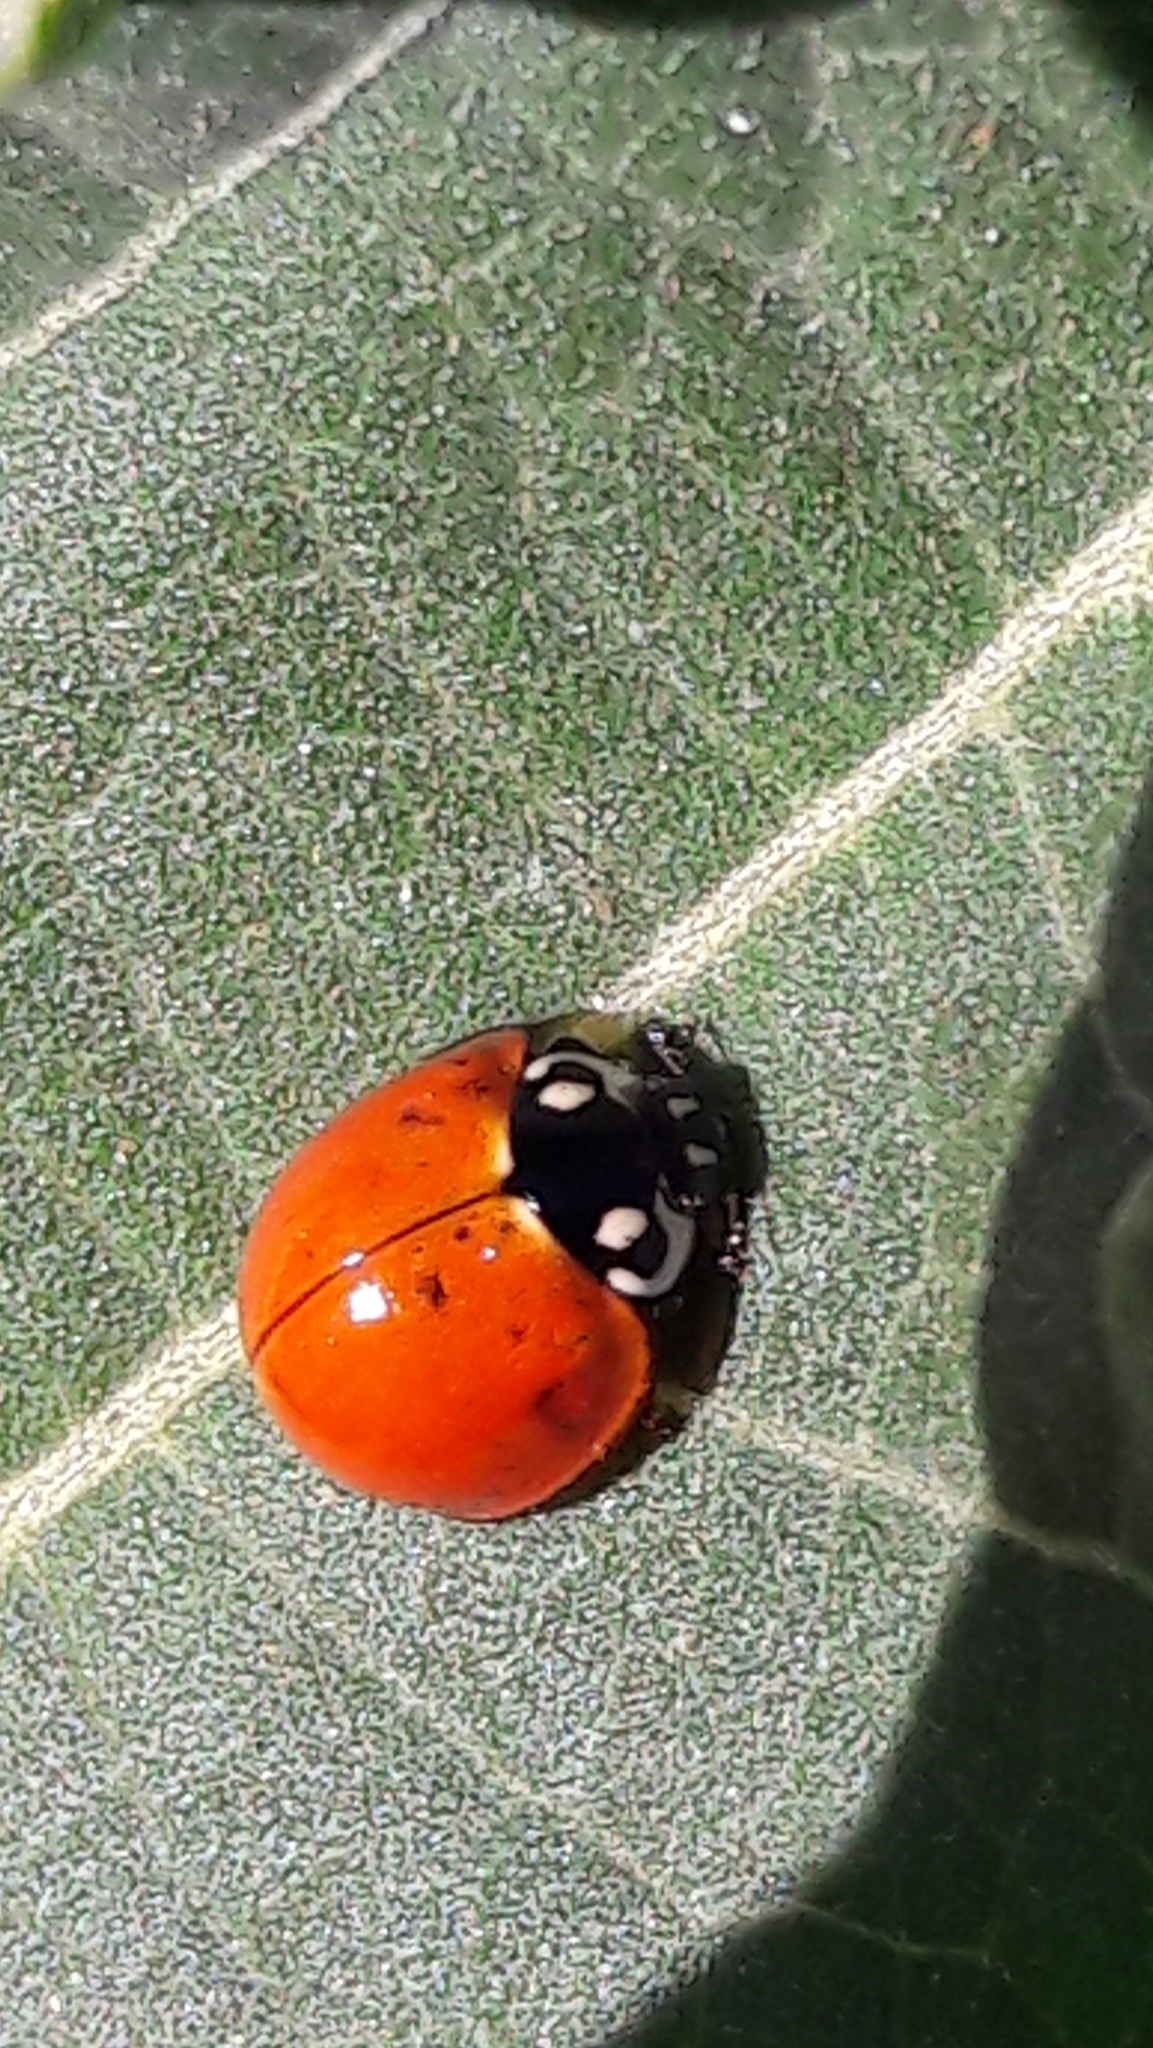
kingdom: Animalia
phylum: Arthropoda
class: Insecta
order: Coleoptera
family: Coccinellidae
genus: Cycloneda
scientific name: Cycloneda sanguinea
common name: Ladybird beetle
